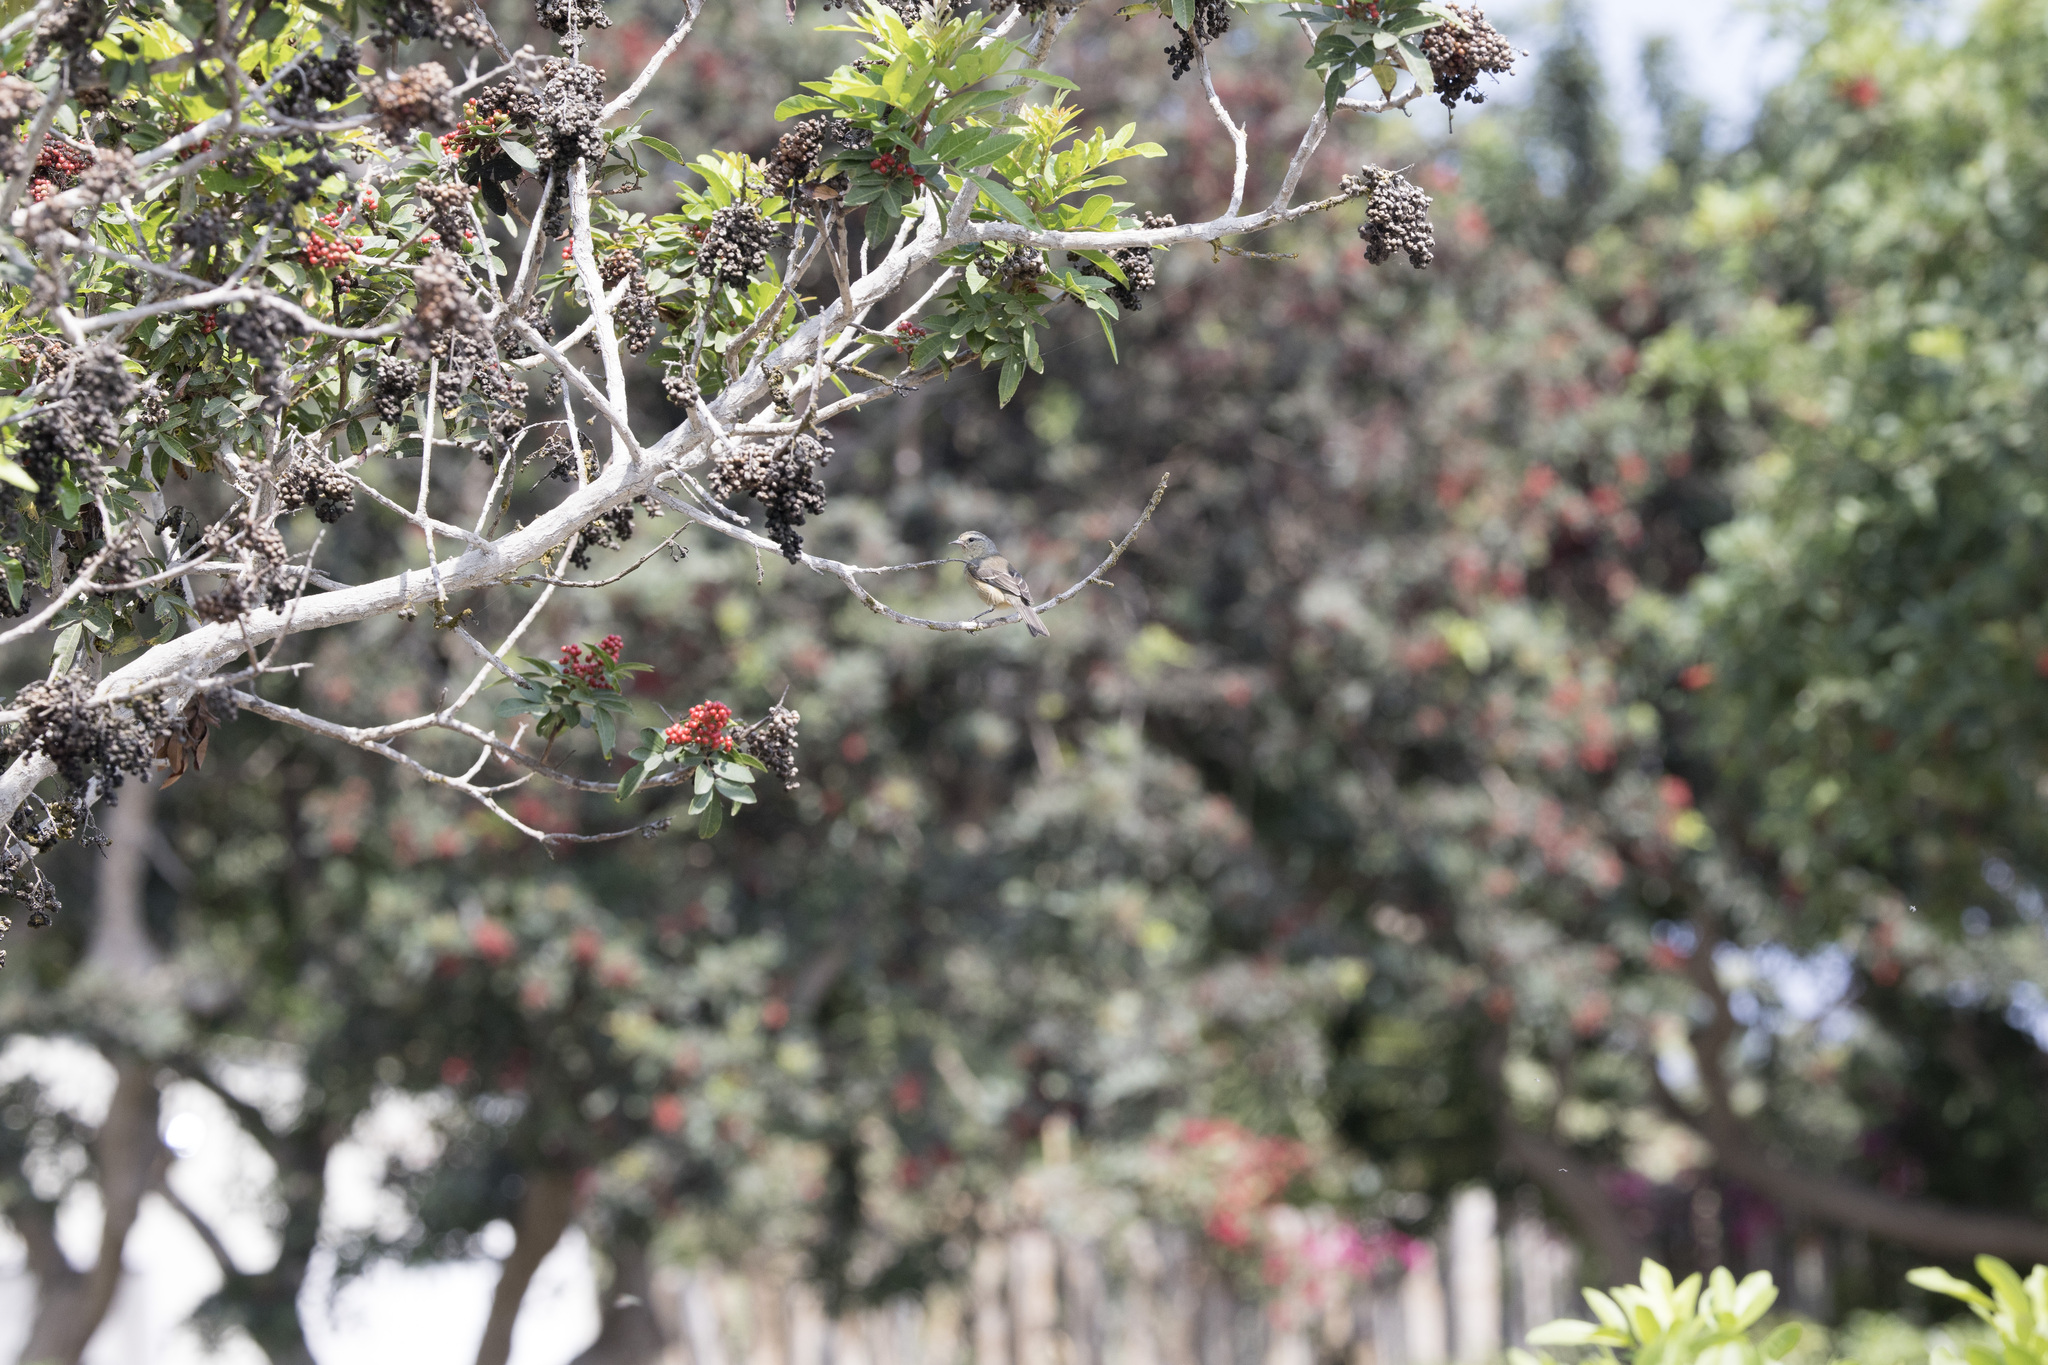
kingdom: Animalia
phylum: Chordata
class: Aves
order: Passeriformes
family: Thraupidae
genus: Conirostrum
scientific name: Conirostrum cinereum
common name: Cinereous conebill
